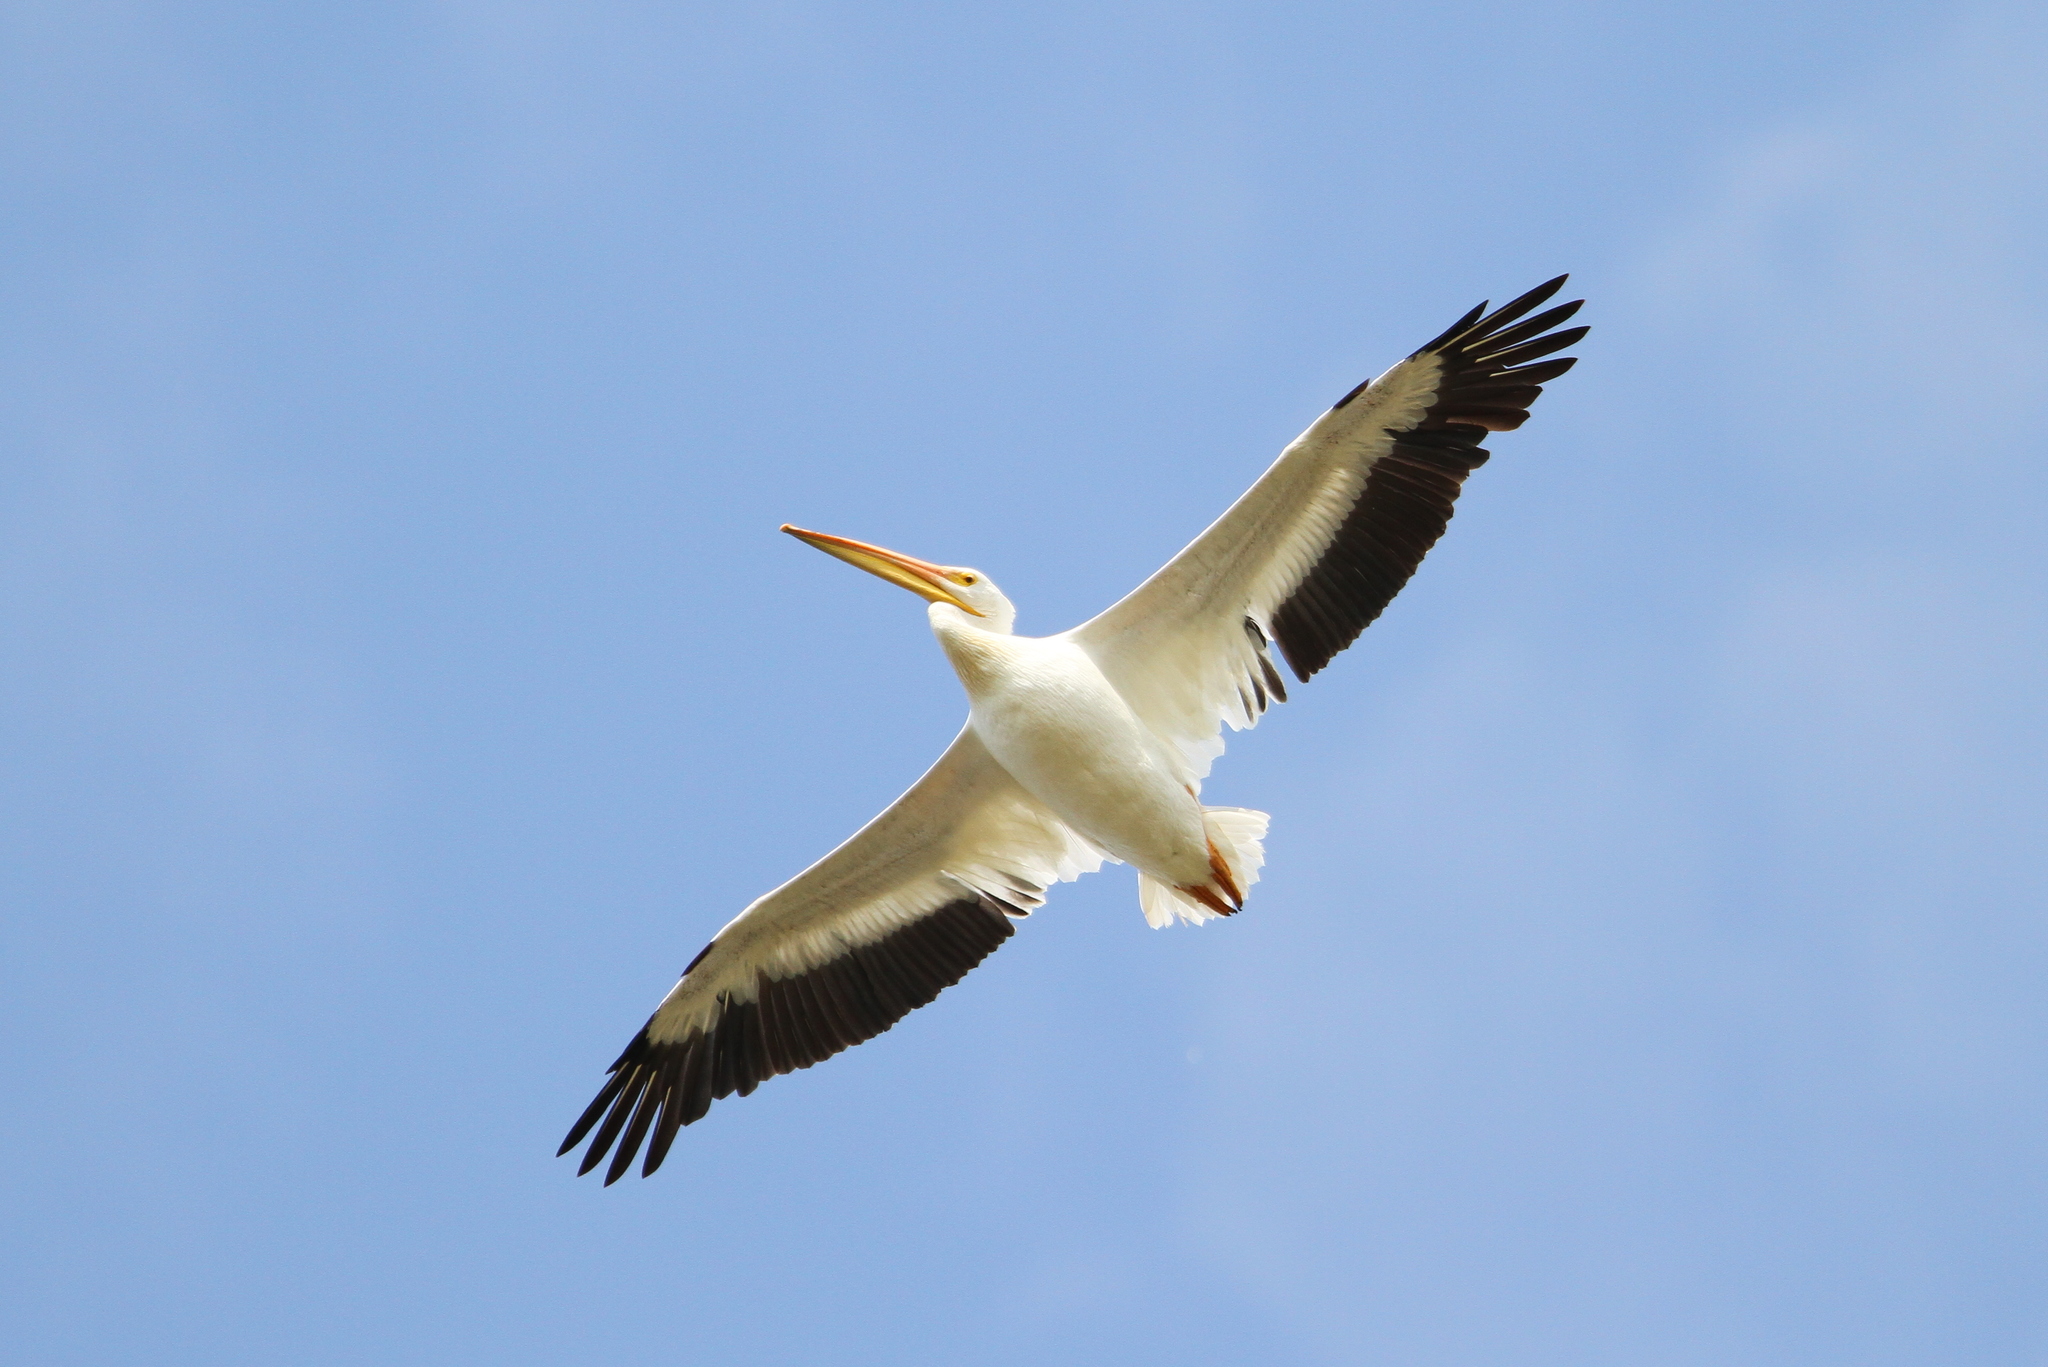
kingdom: Animalia
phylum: Chordata
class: Aves
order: Pelecaniformes
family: Pelecanidae
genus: Pelecanus
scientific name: Pelecanus erythrorhynchos
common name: American white pelican
